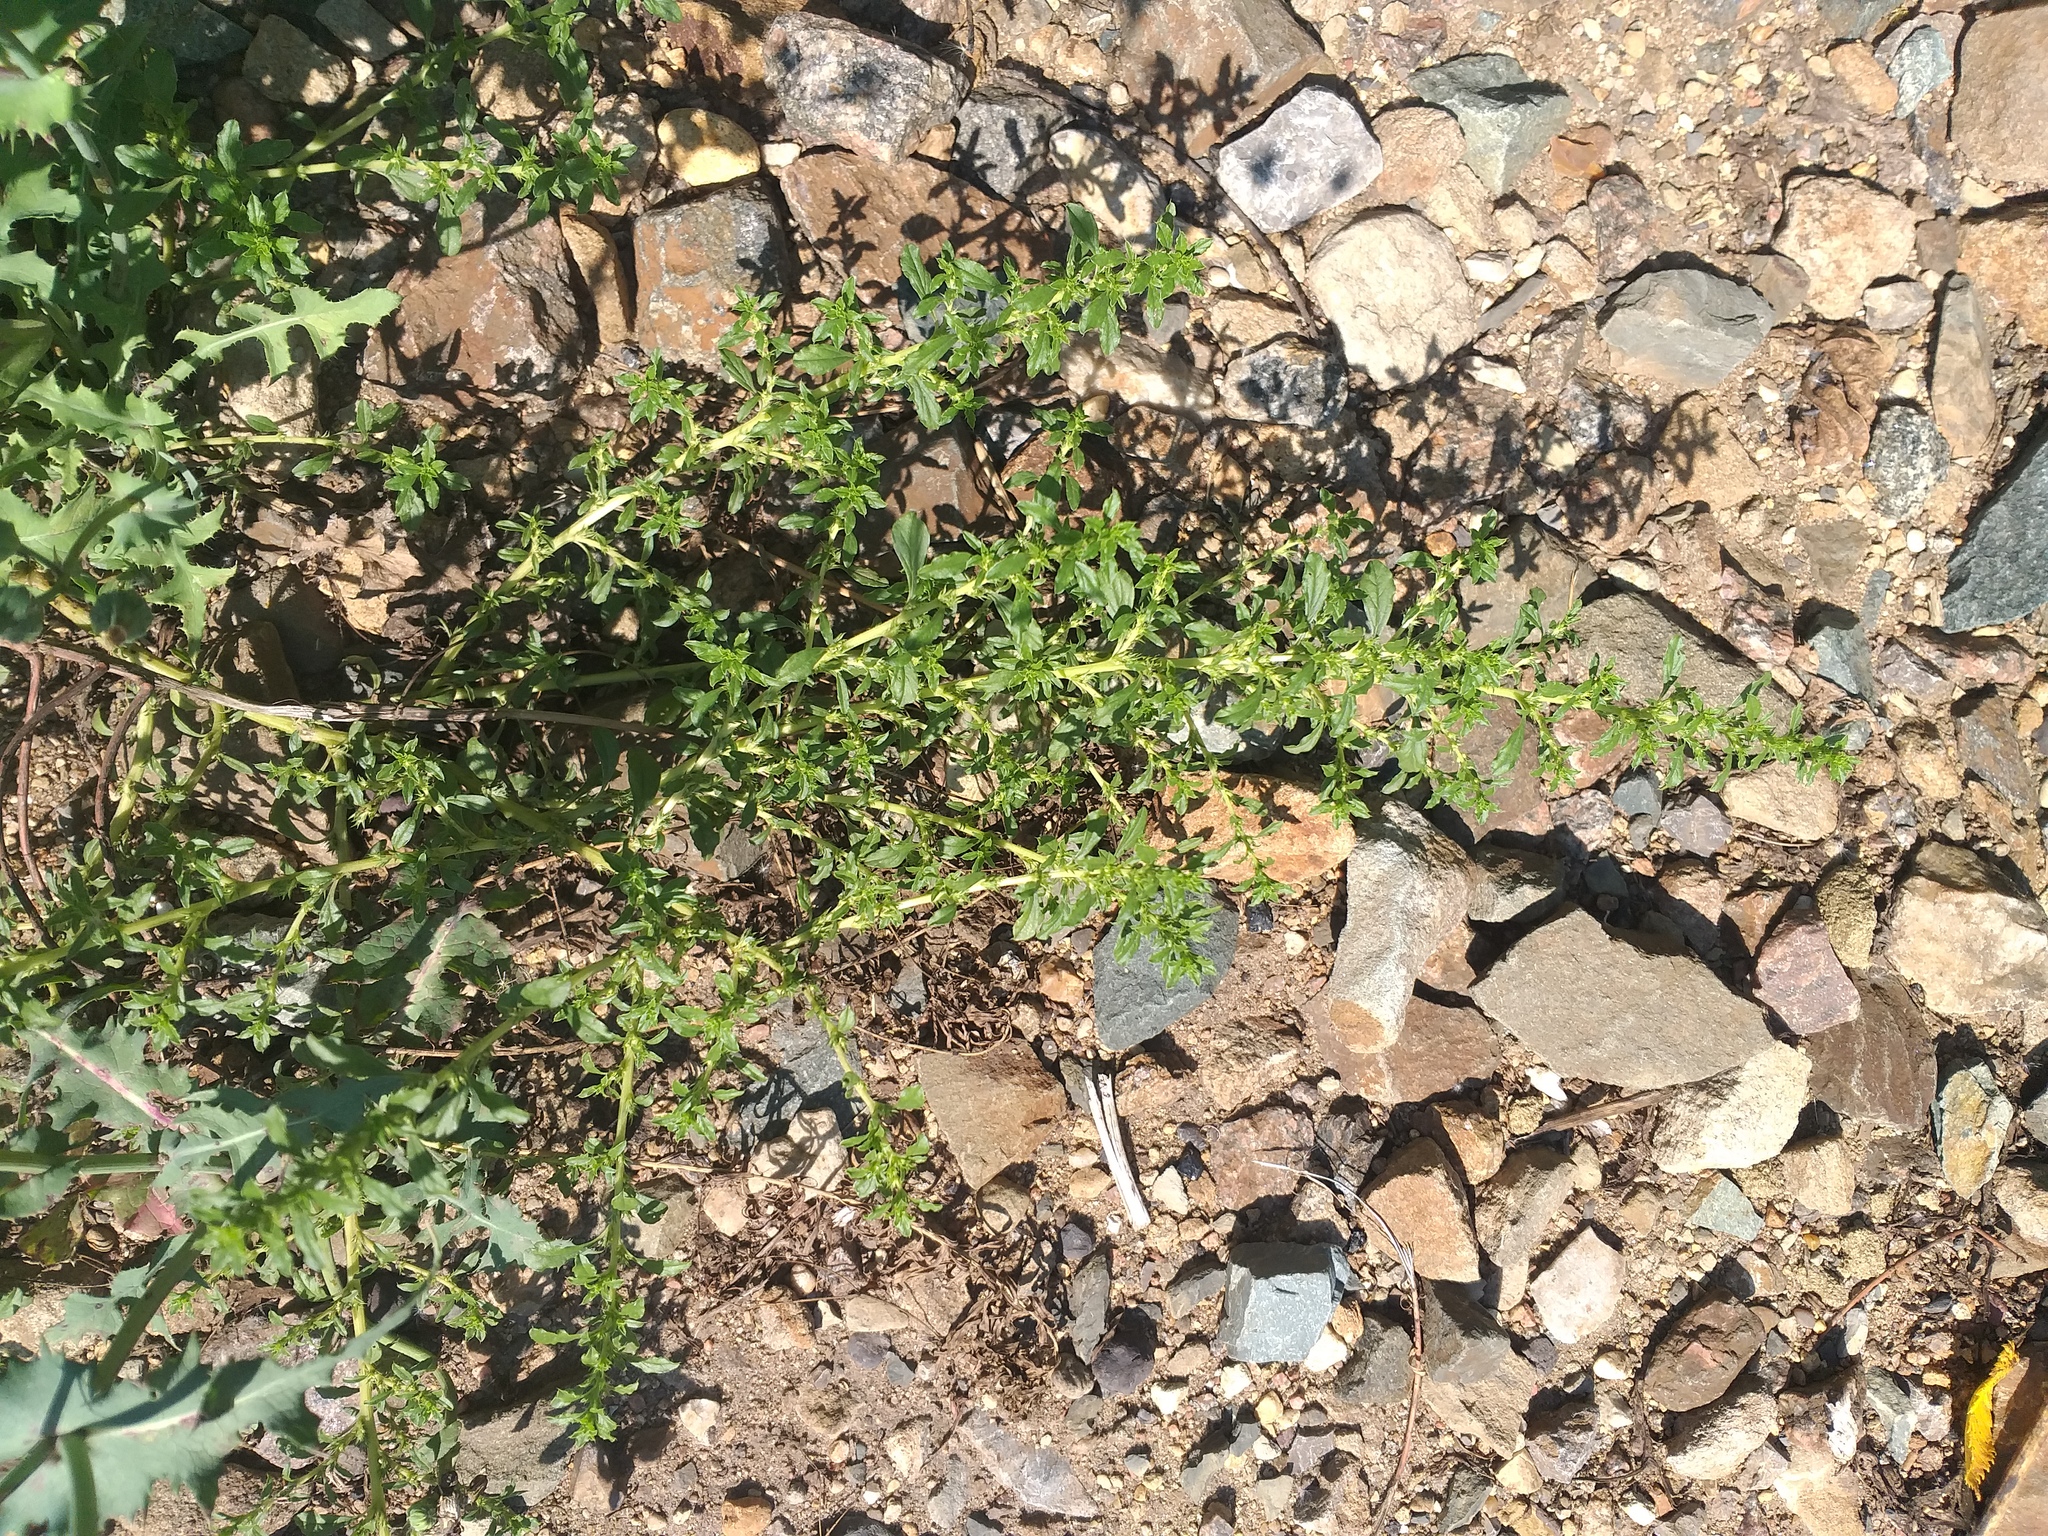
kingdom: Plantae
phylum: Tracheophyta
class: Magnoliopsida
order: Caryophyllales
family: Amaranthaceae
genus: Amaranthus
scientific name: Amaranthus albus
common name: White pigweed
